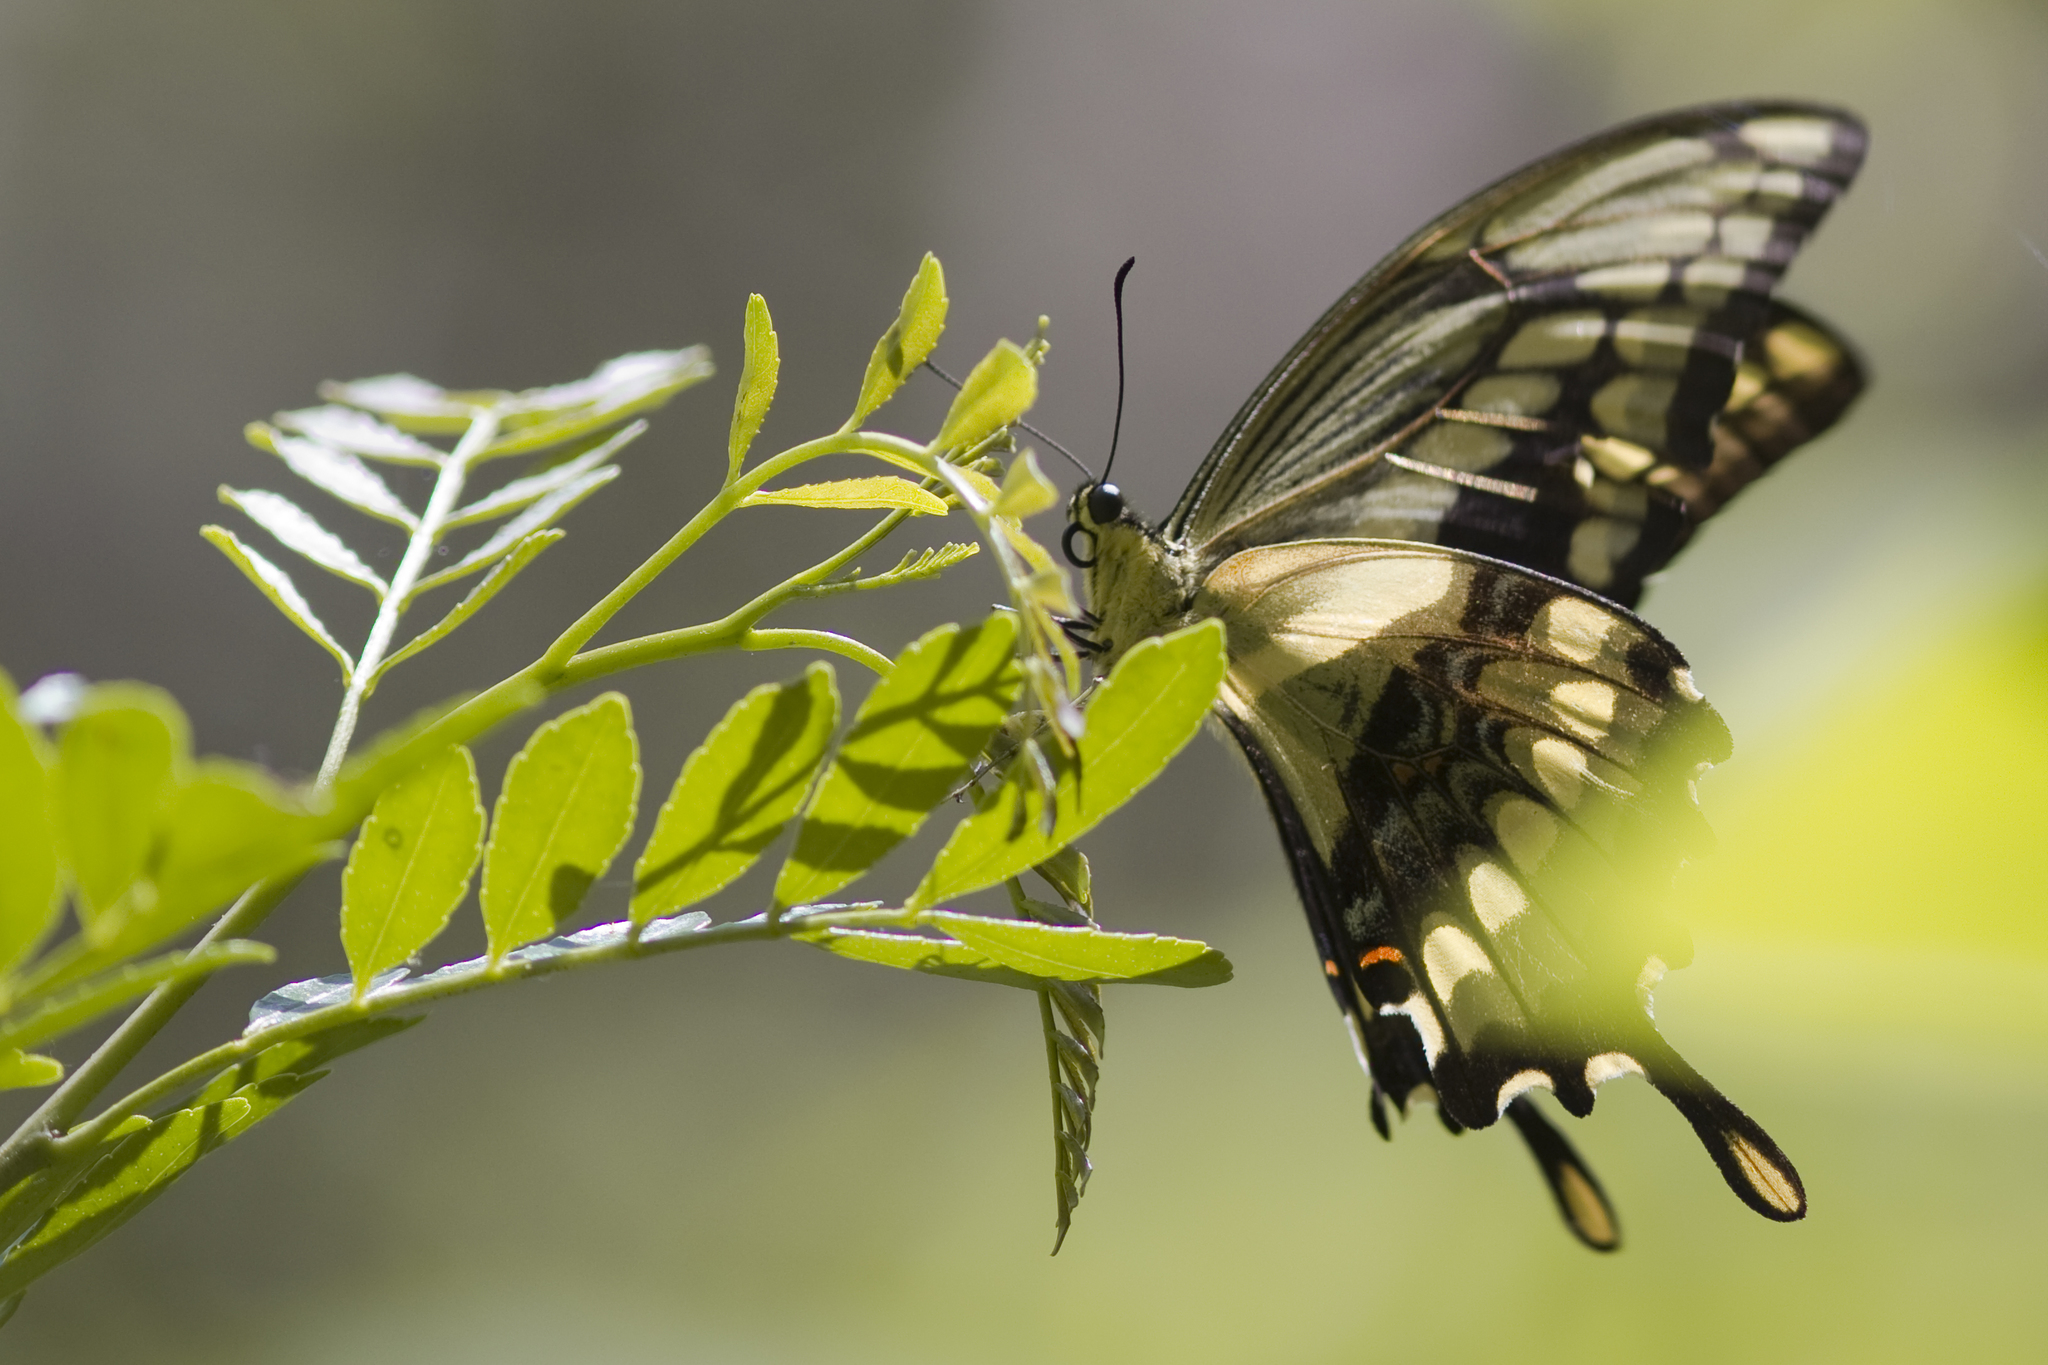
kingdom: Animalia
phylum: Arthropoda
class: Insecta
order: Lepidoptera
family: Papilionidae
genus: Papilio
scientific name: Papilio thoas
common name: King swallowtail
